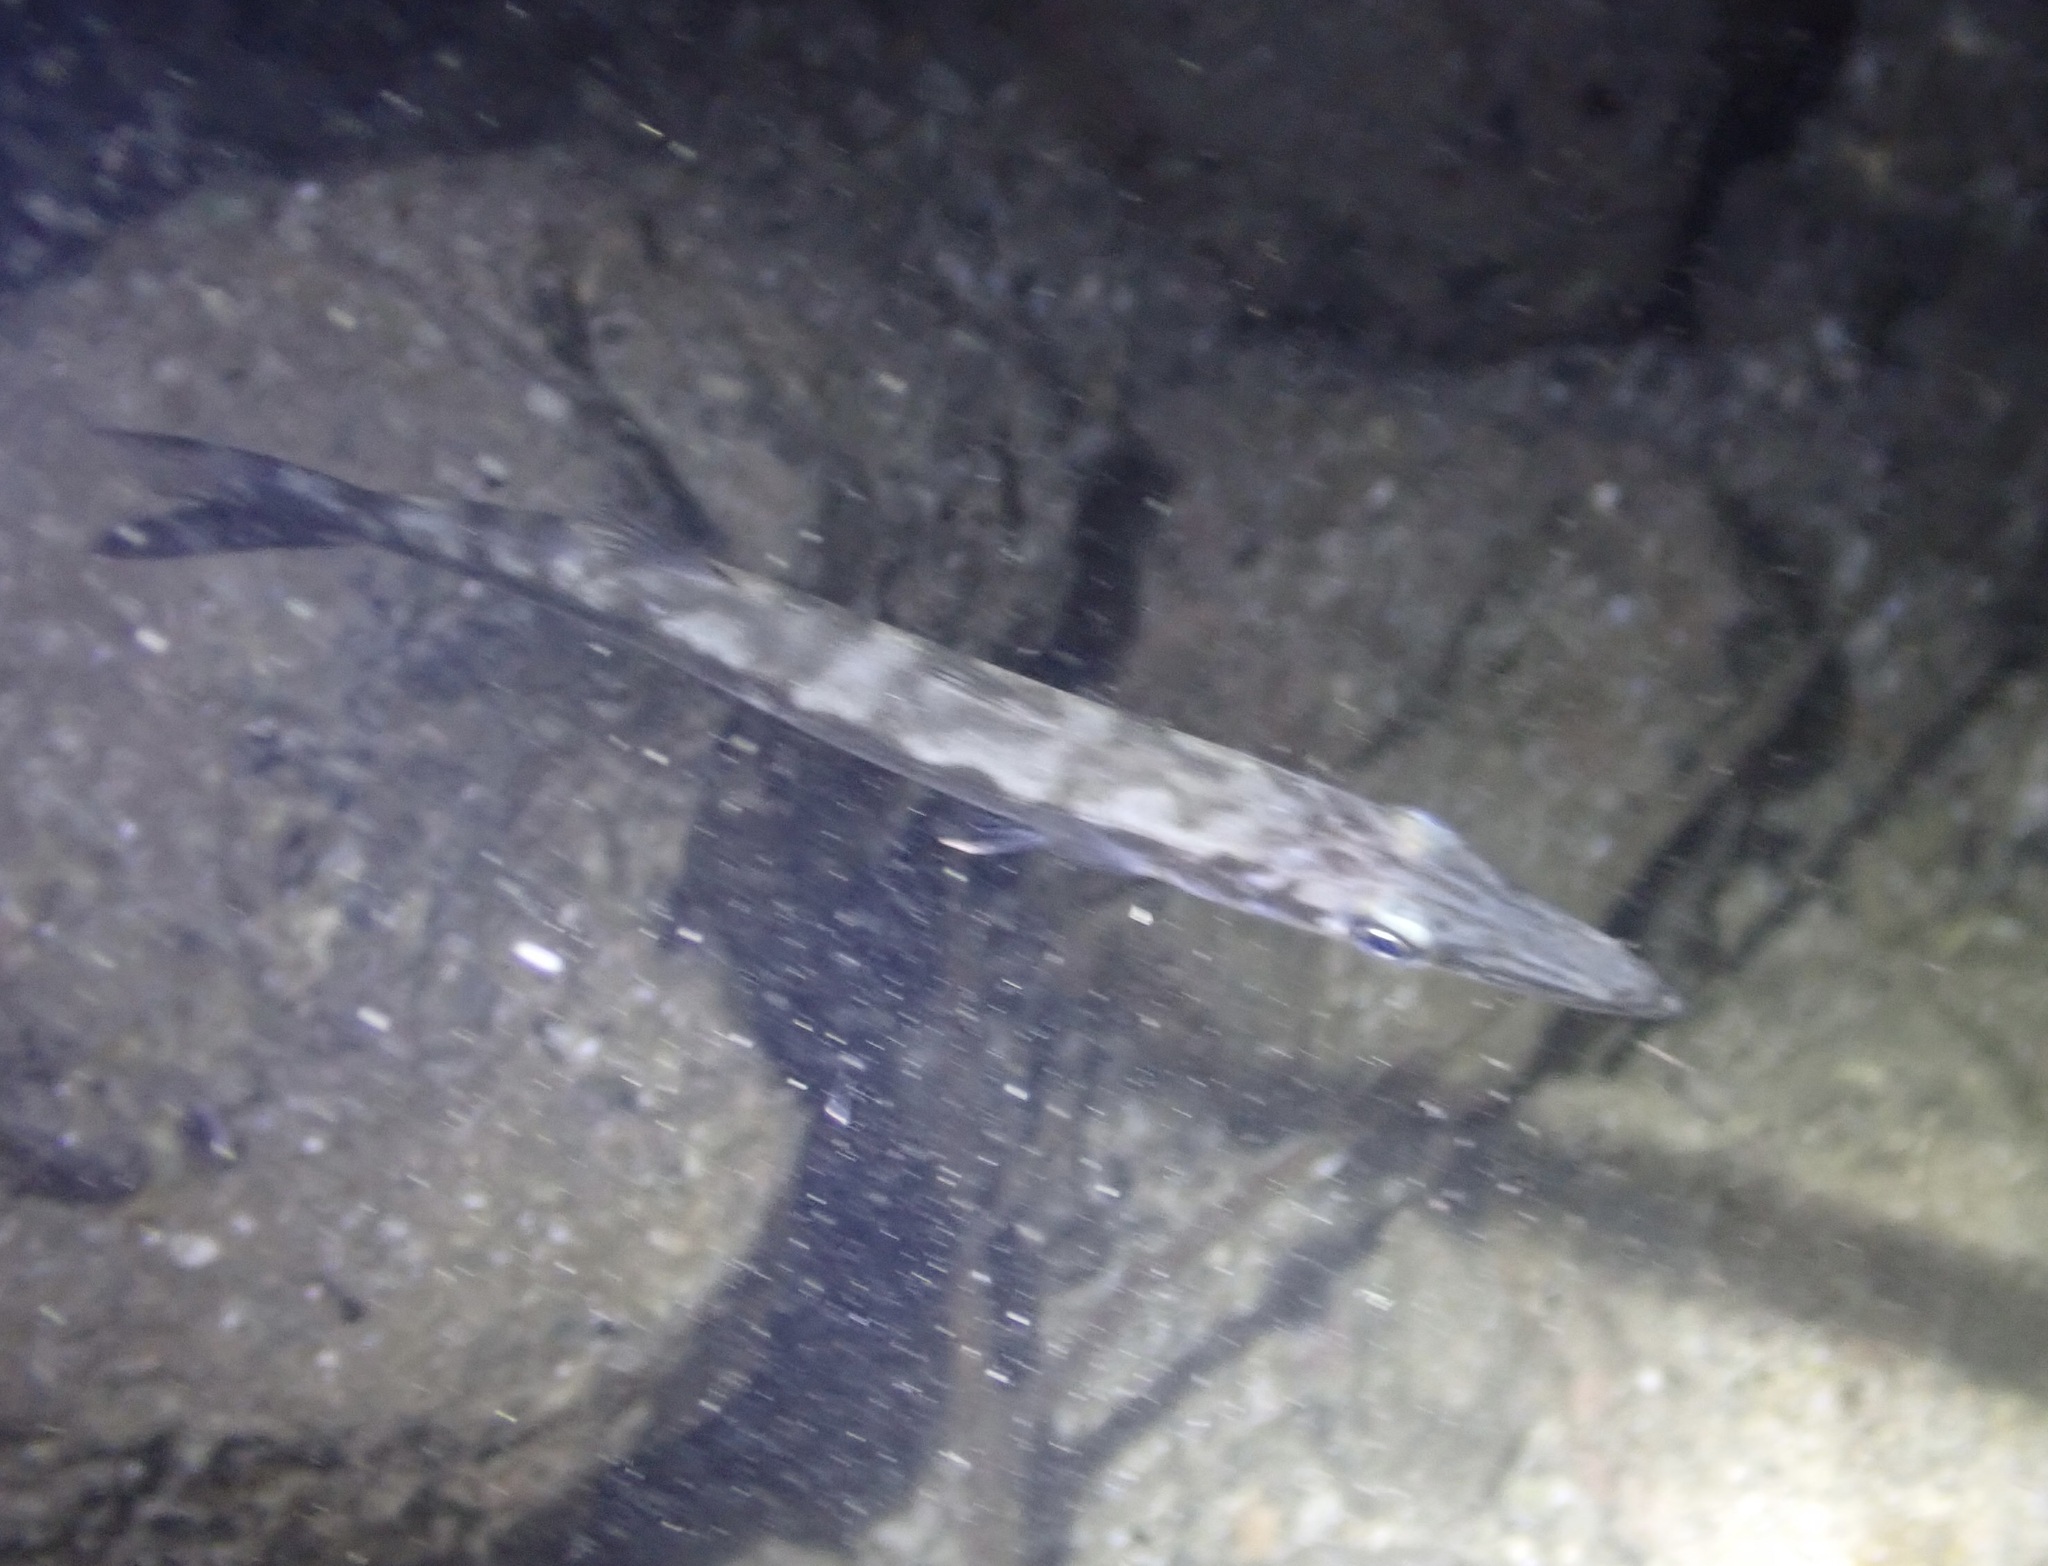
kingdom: Animalia
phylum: Chordata
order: Perciformes
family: Sphyraenidae
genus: Sphyraena
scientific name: Sphyraena barracuda
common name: Great barracuda
